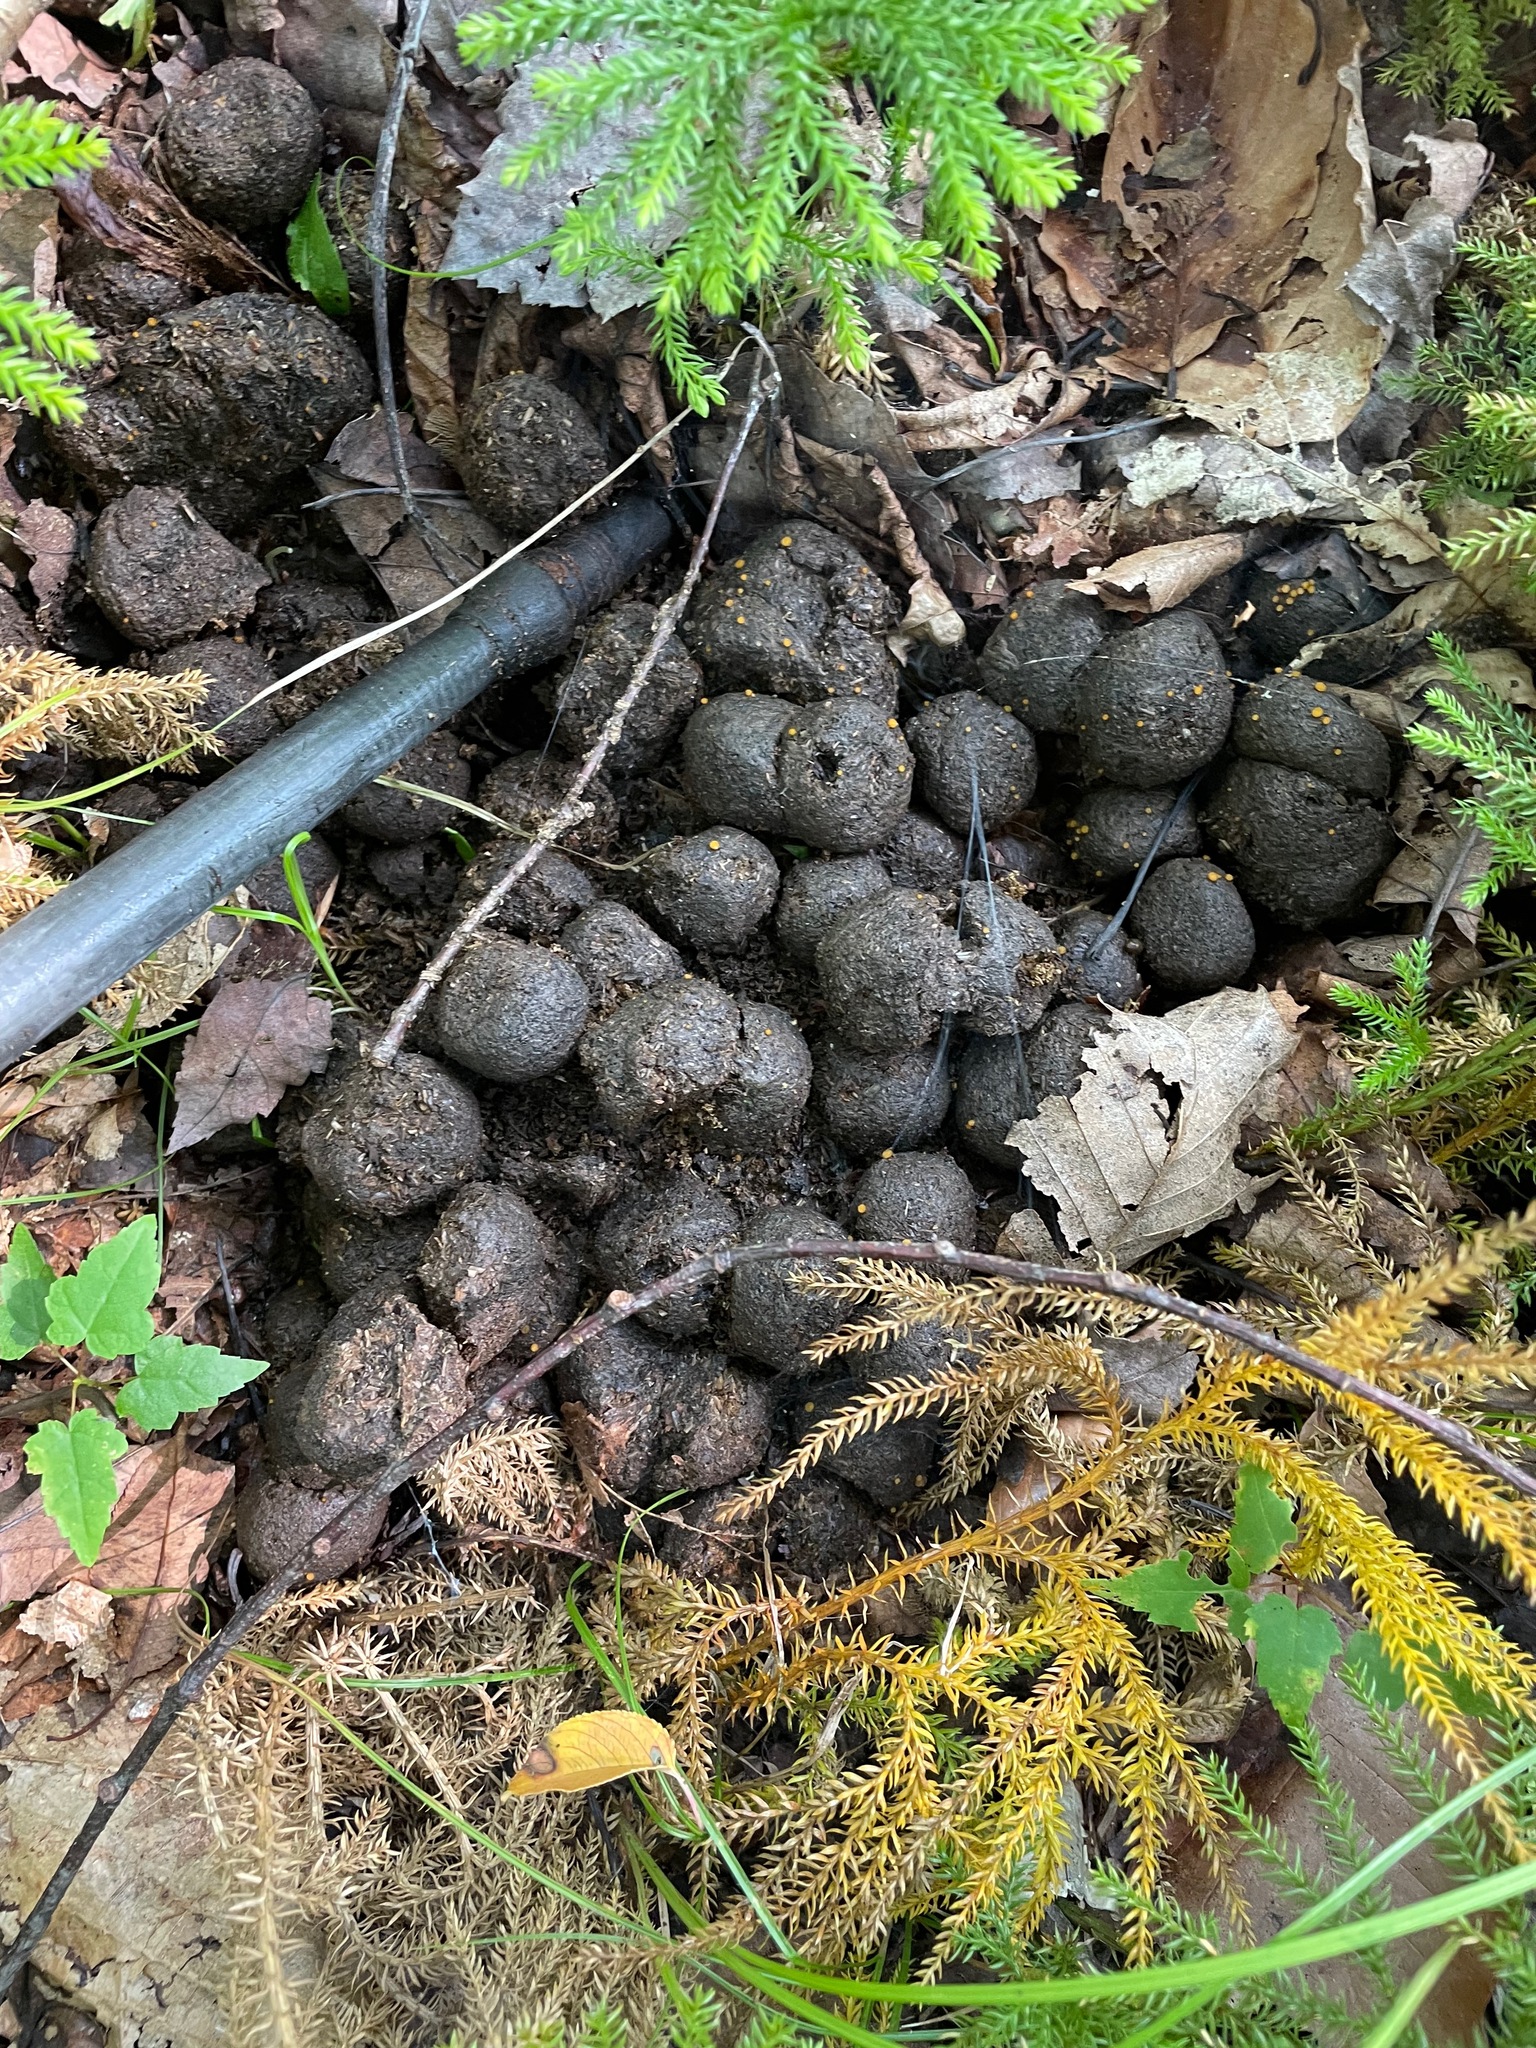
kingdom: Animalia
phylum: Chordata
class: Mammalia
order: Artiodactyla
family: Cervidae
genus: Alces
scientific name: Alces alces
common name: Moose
